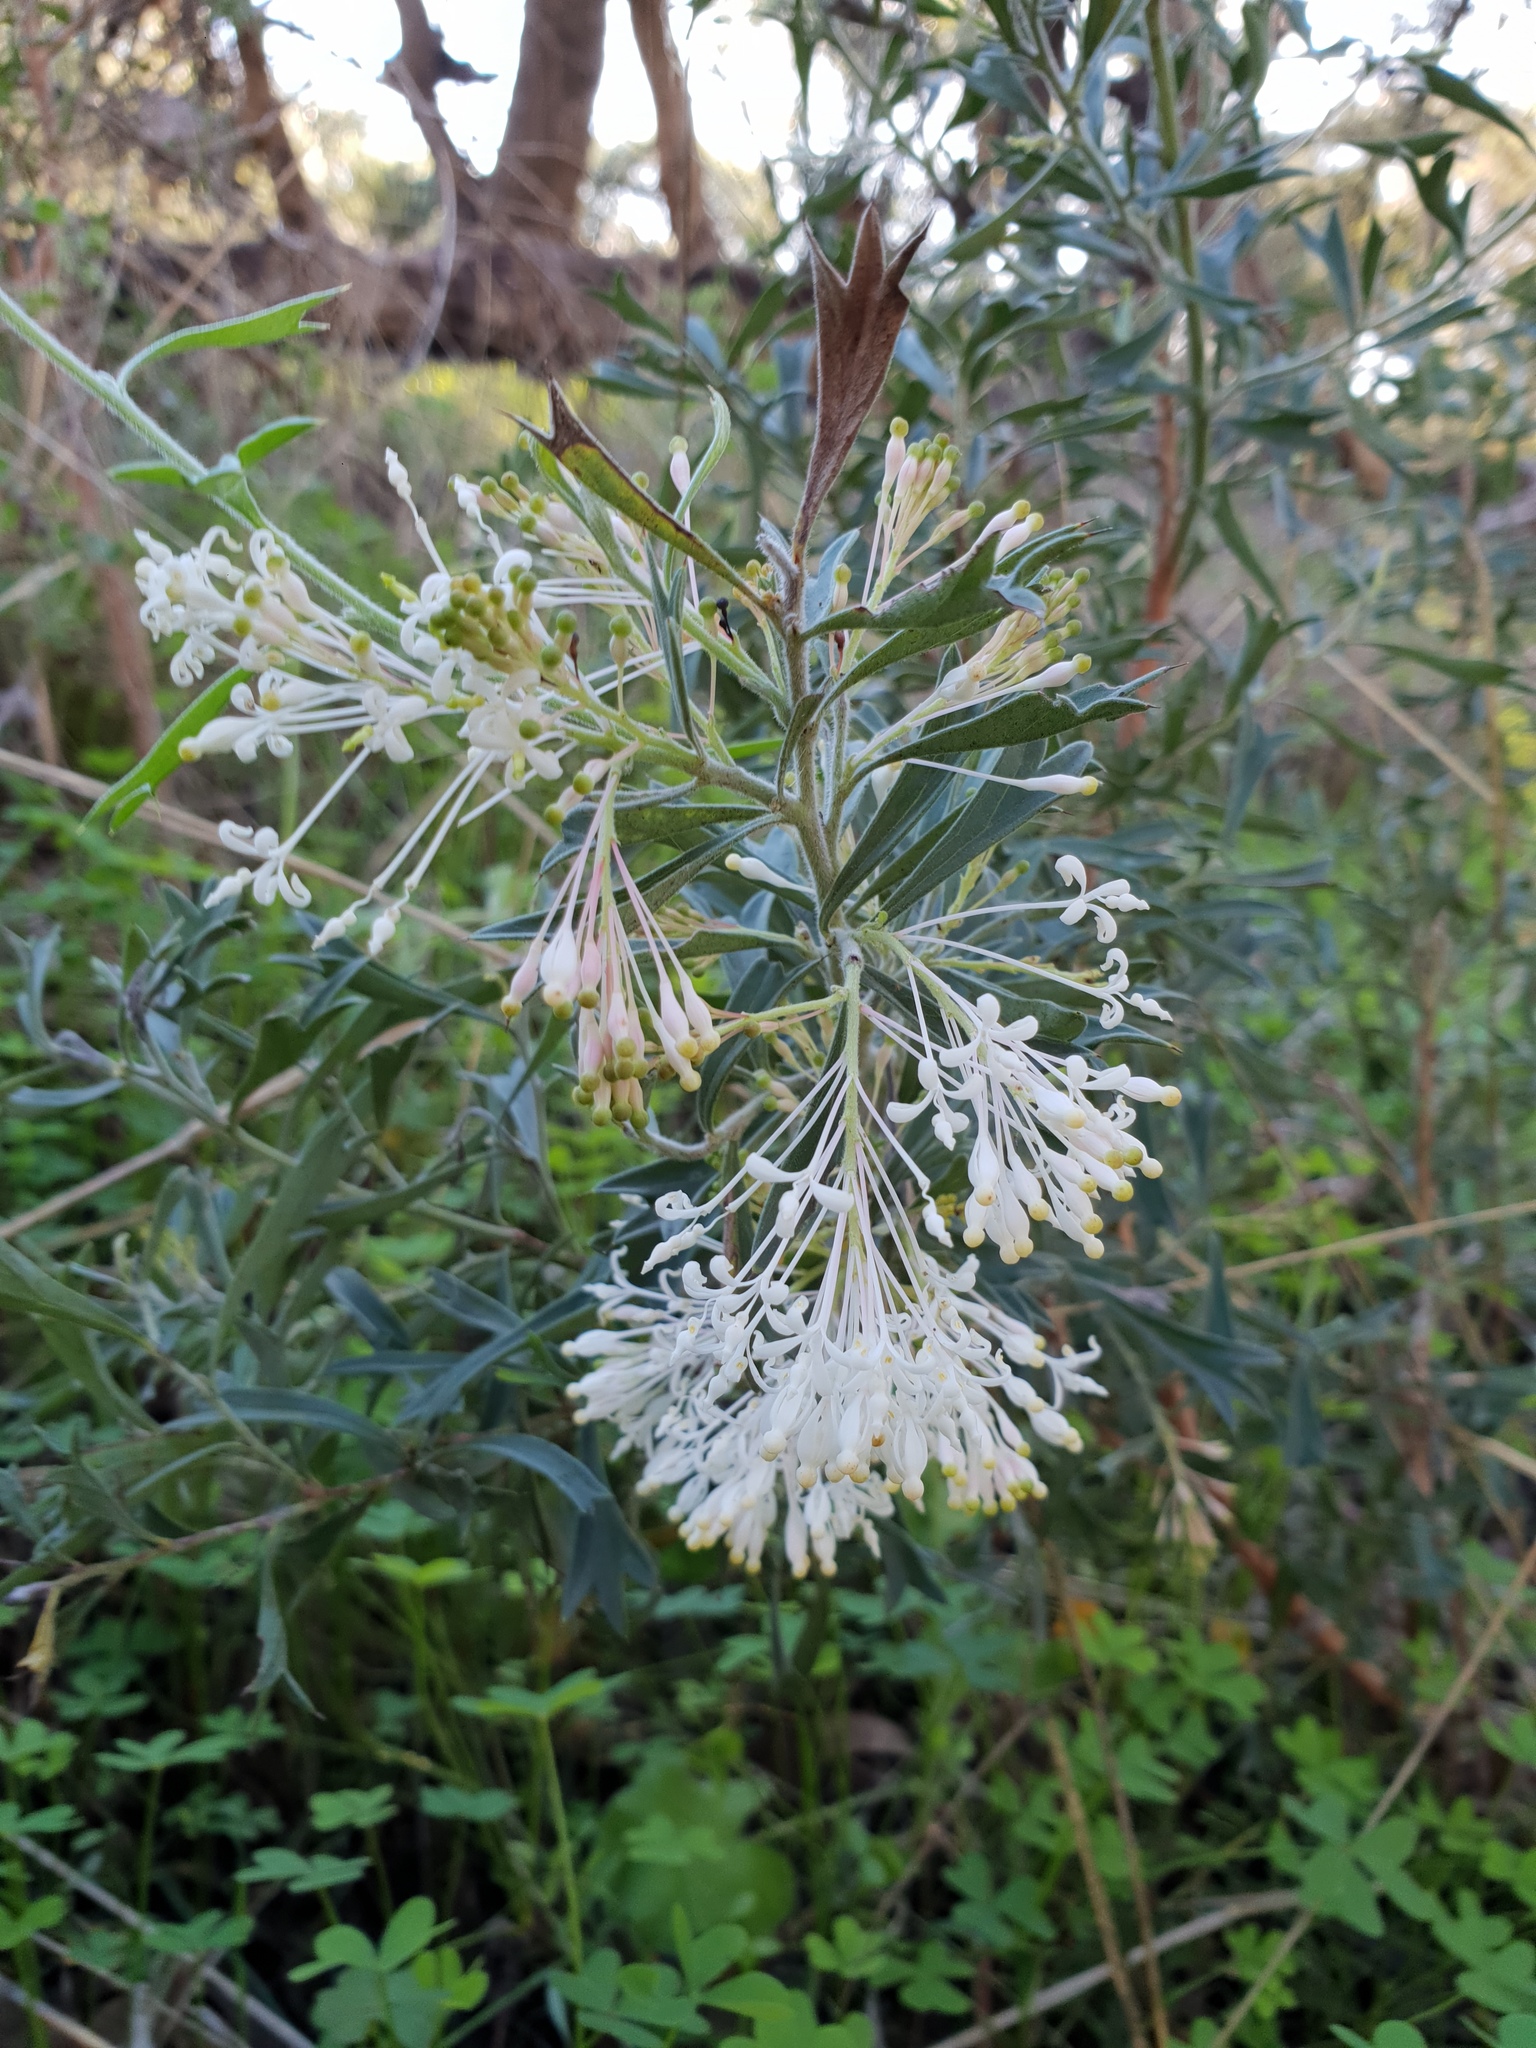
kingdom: Plantae
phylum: Tracheophyta
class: Magnoliopsida
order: Proteales
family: Proteaceae
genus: Grevillea
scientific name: Grevillea vestita
